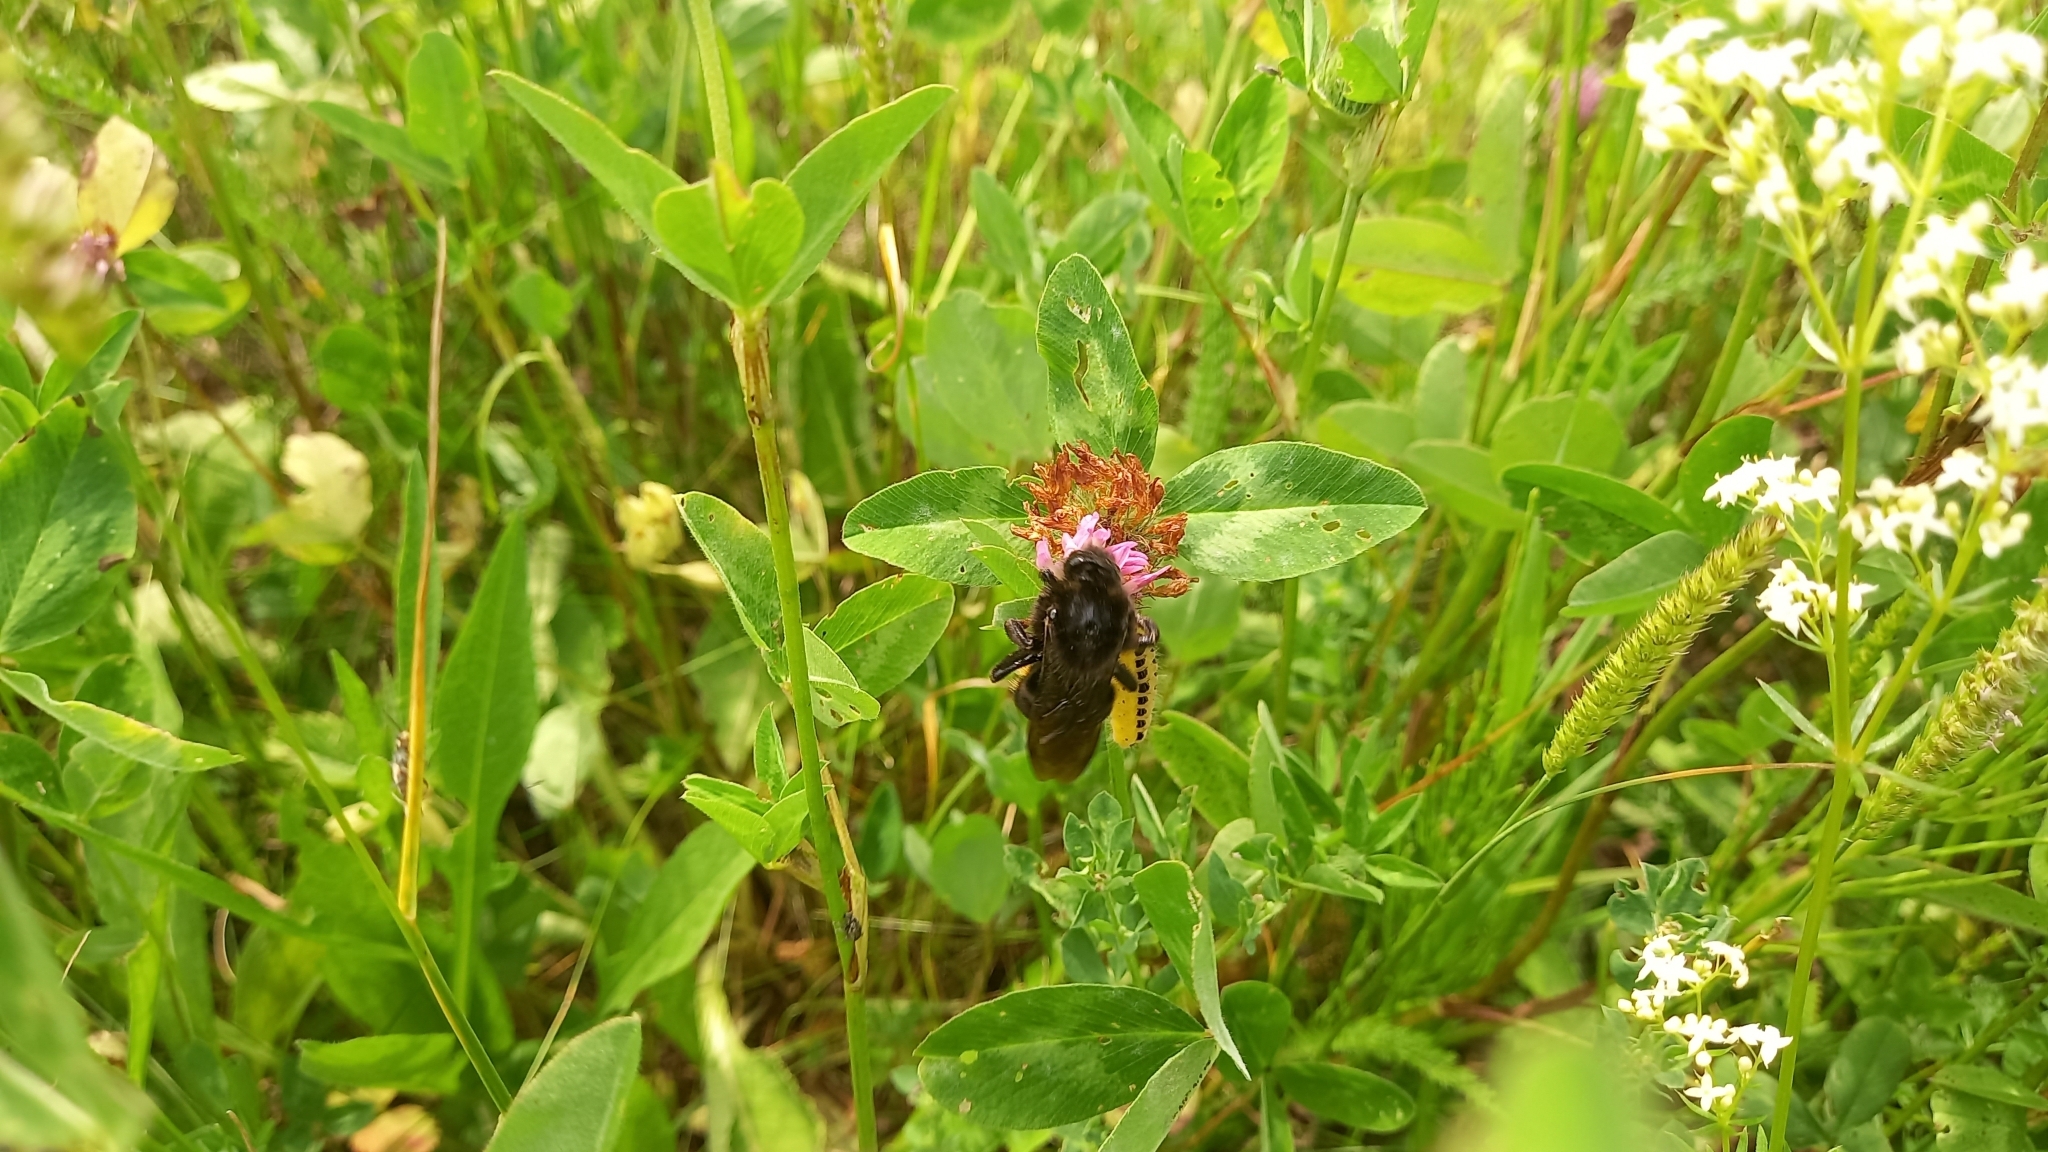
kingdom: Animalia
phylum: Arthropoda
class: Insecta
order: Hymenoptera
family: Apidae
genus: Bombus
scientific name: Bombus rupestris
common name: Hill cuckoo-bee
